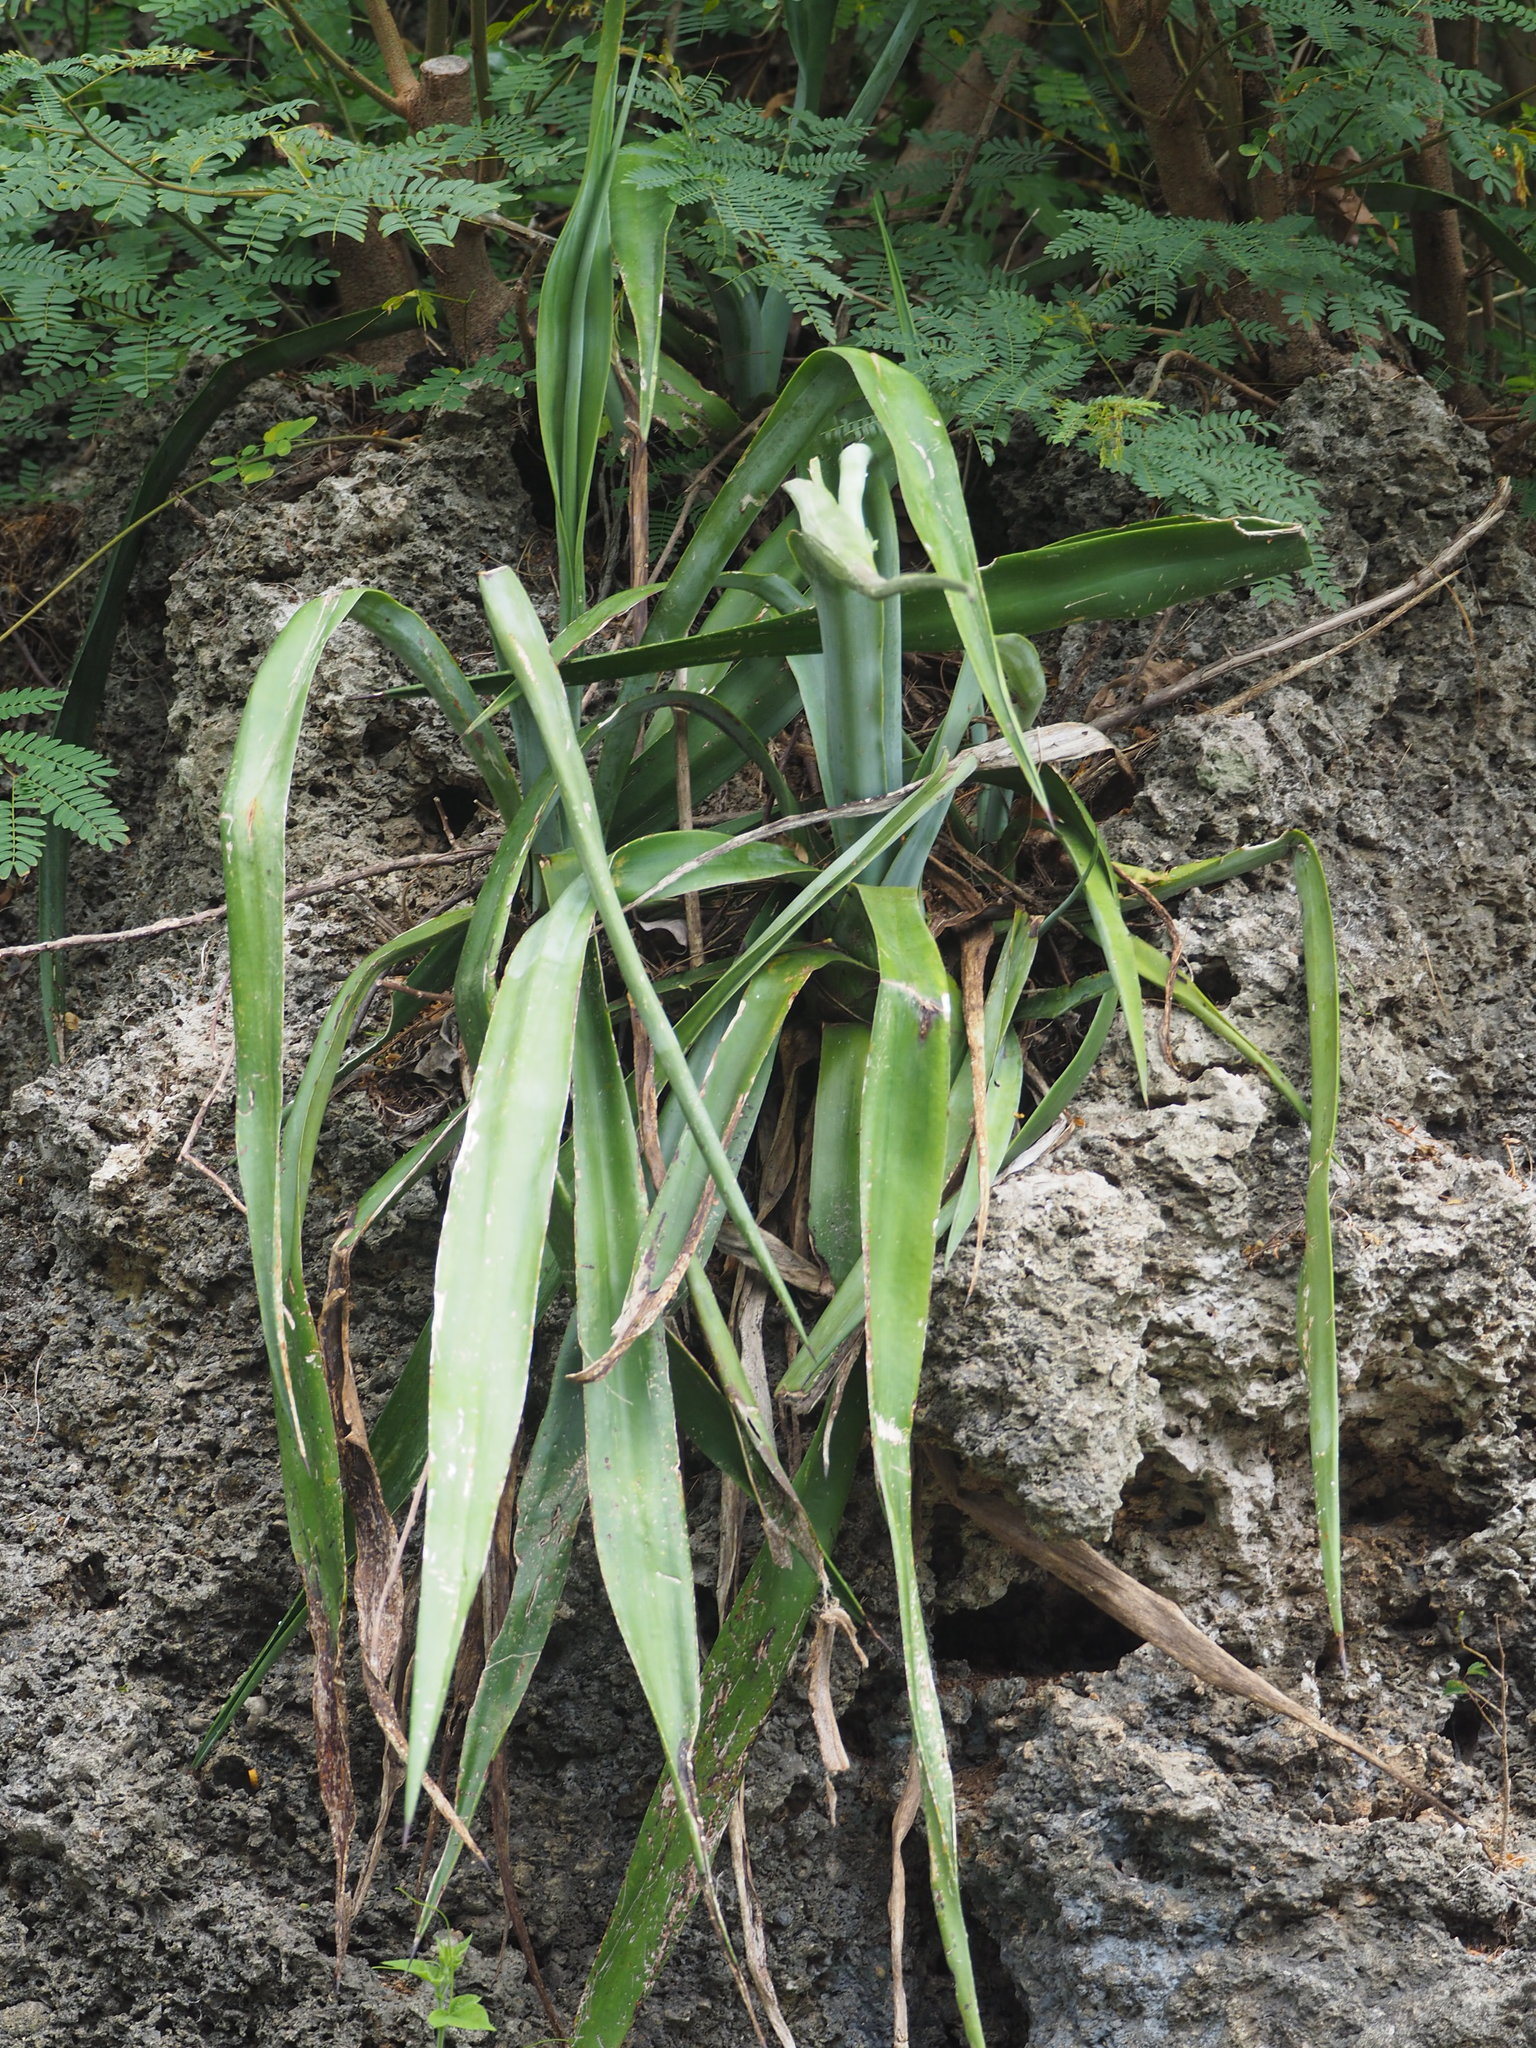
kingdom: Plantae
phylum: Tracheophyta
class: Liliopsida
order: Asparagales
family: Asparagaceae
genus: Agave
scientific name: Agave sisalana
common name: Sisal hemp
